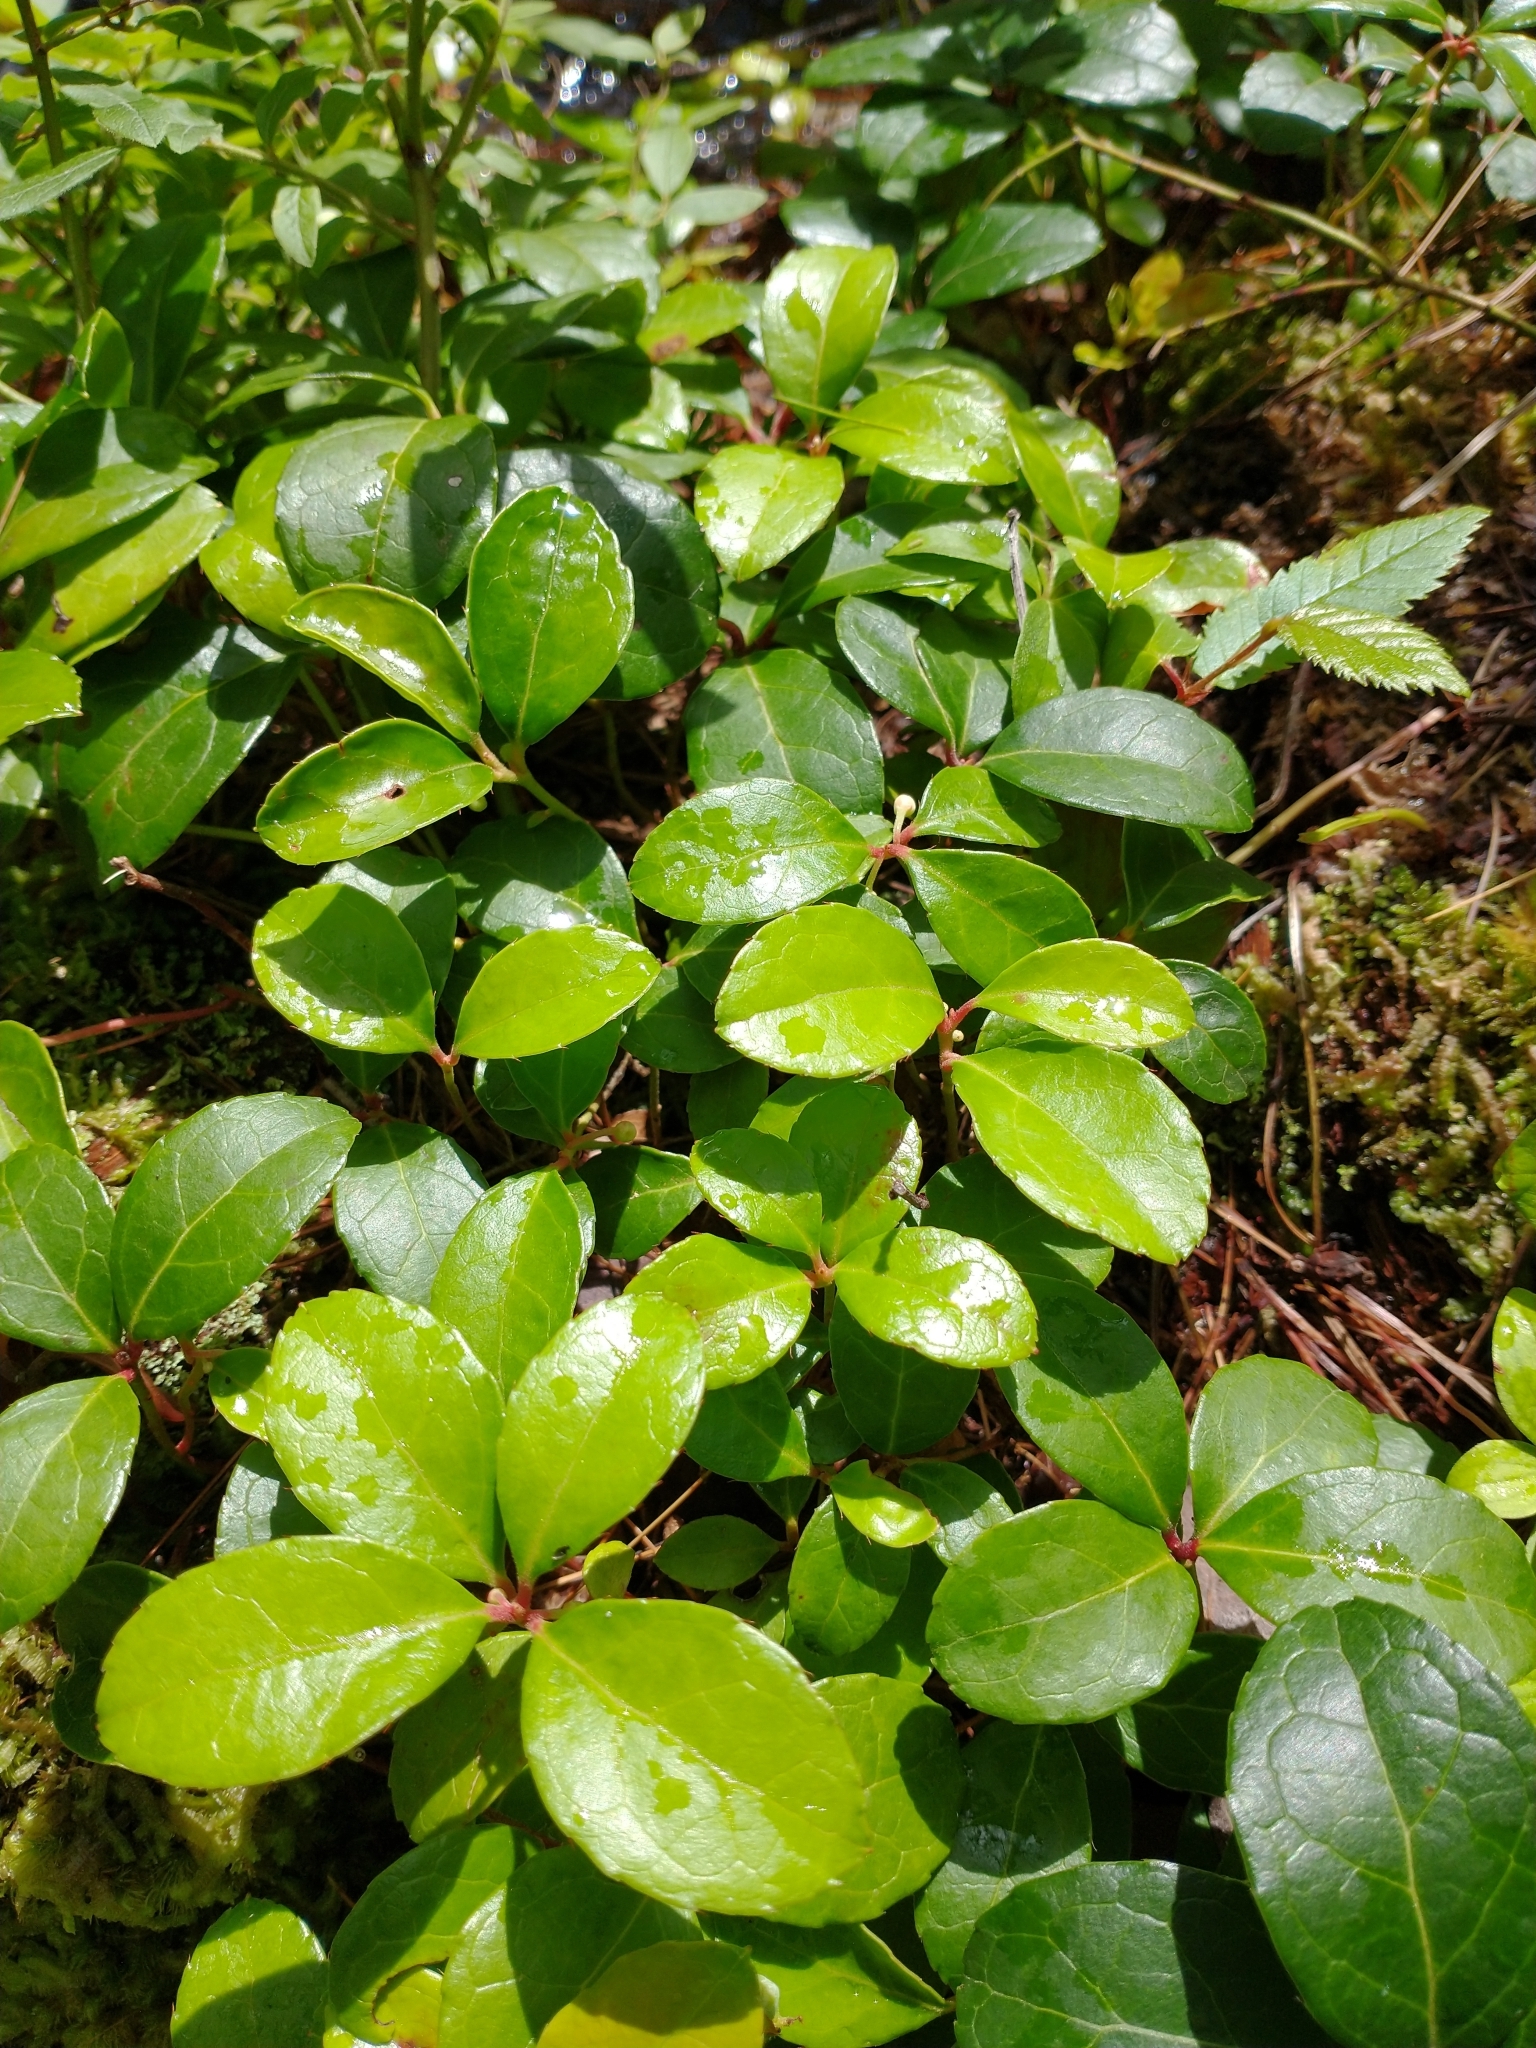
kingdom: Plantae
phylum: Tracheophyta
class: Magnoliopsida
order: Ericales
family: Ericaceae
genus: Gaultheria
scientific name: Gaultheria procumbens
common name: Checkerberry
